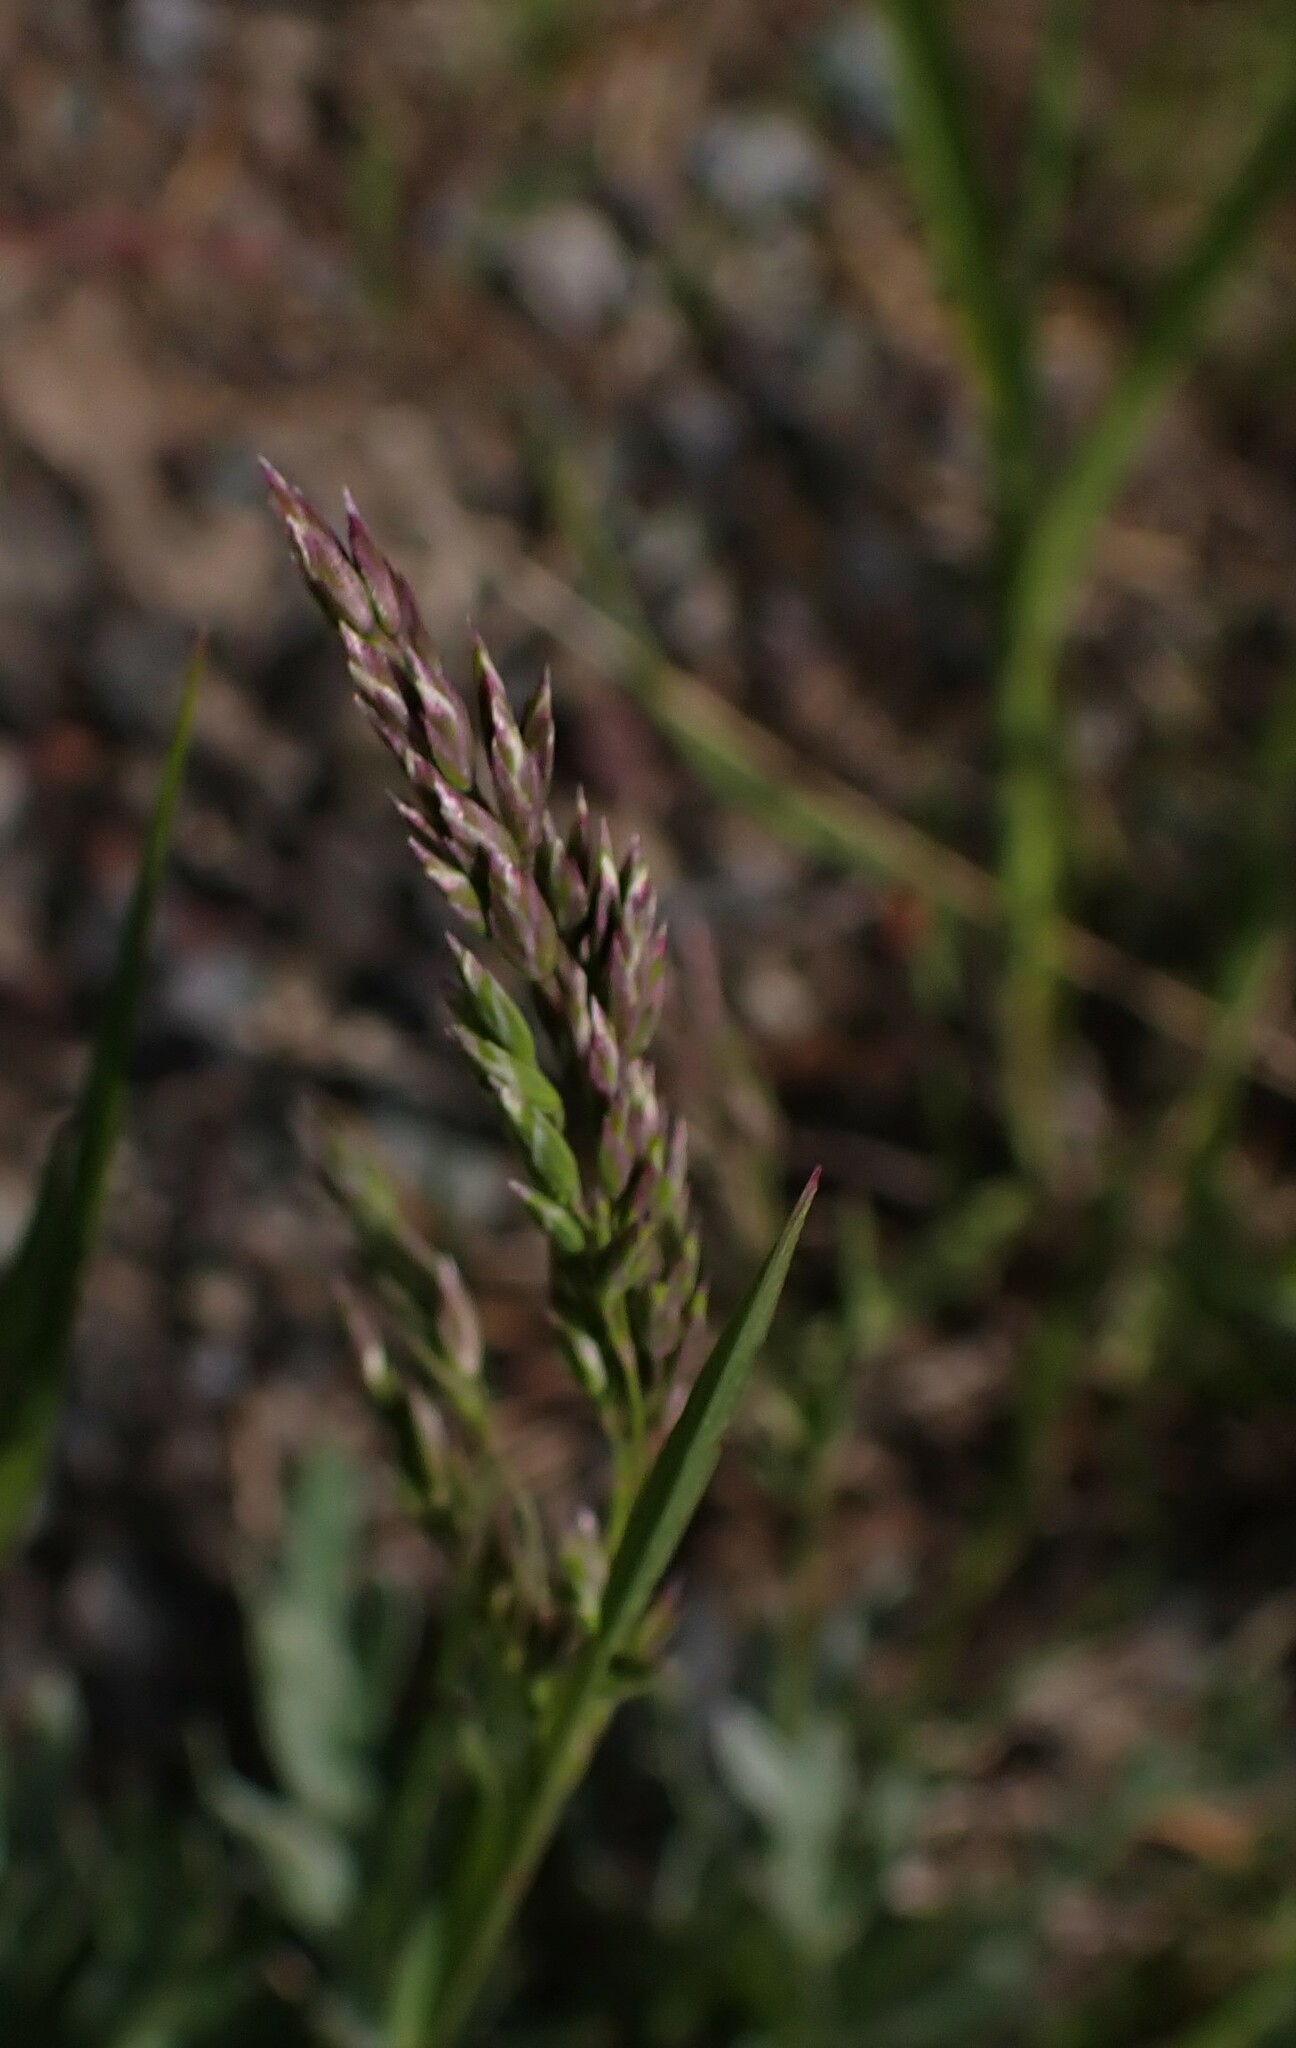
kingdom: Plantae
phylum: Tracheophyta
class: Liliopsida
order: Poales
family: Poaceae
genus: Poa
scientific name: Poa pratensis
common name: Kentucky bluegrass
